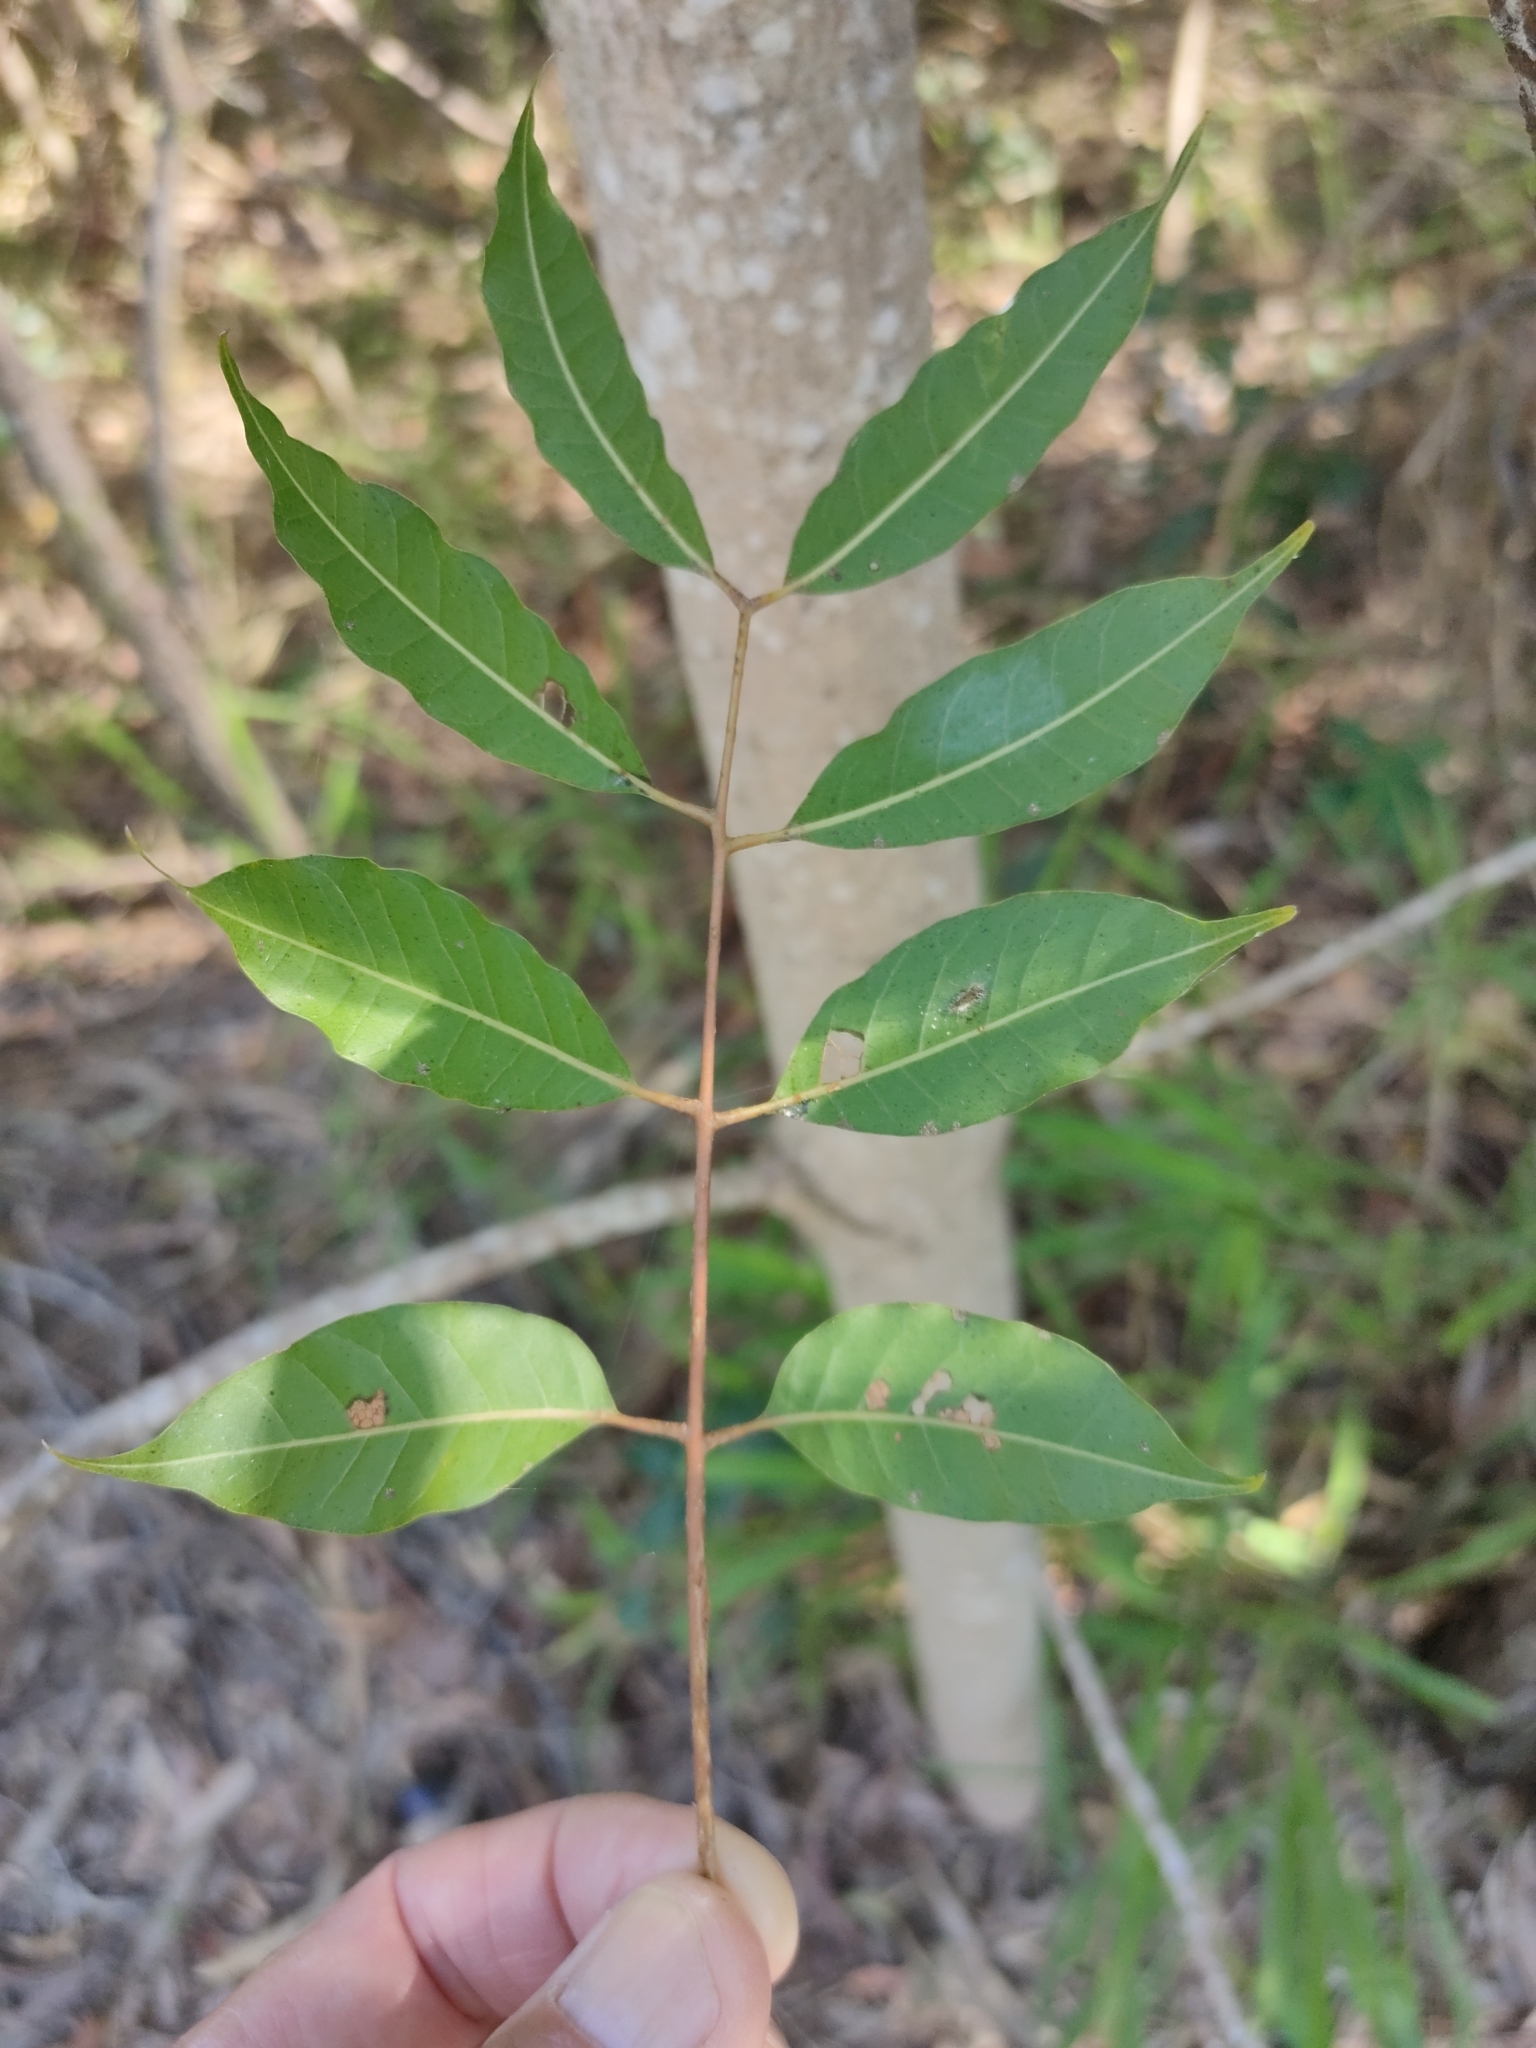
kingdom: Plantae
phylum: Tracheophyta
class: Magnoliopsida
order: Sapindales
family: Anacardiaceae
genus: Euroschinus
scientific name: Euroschinus falcatus
